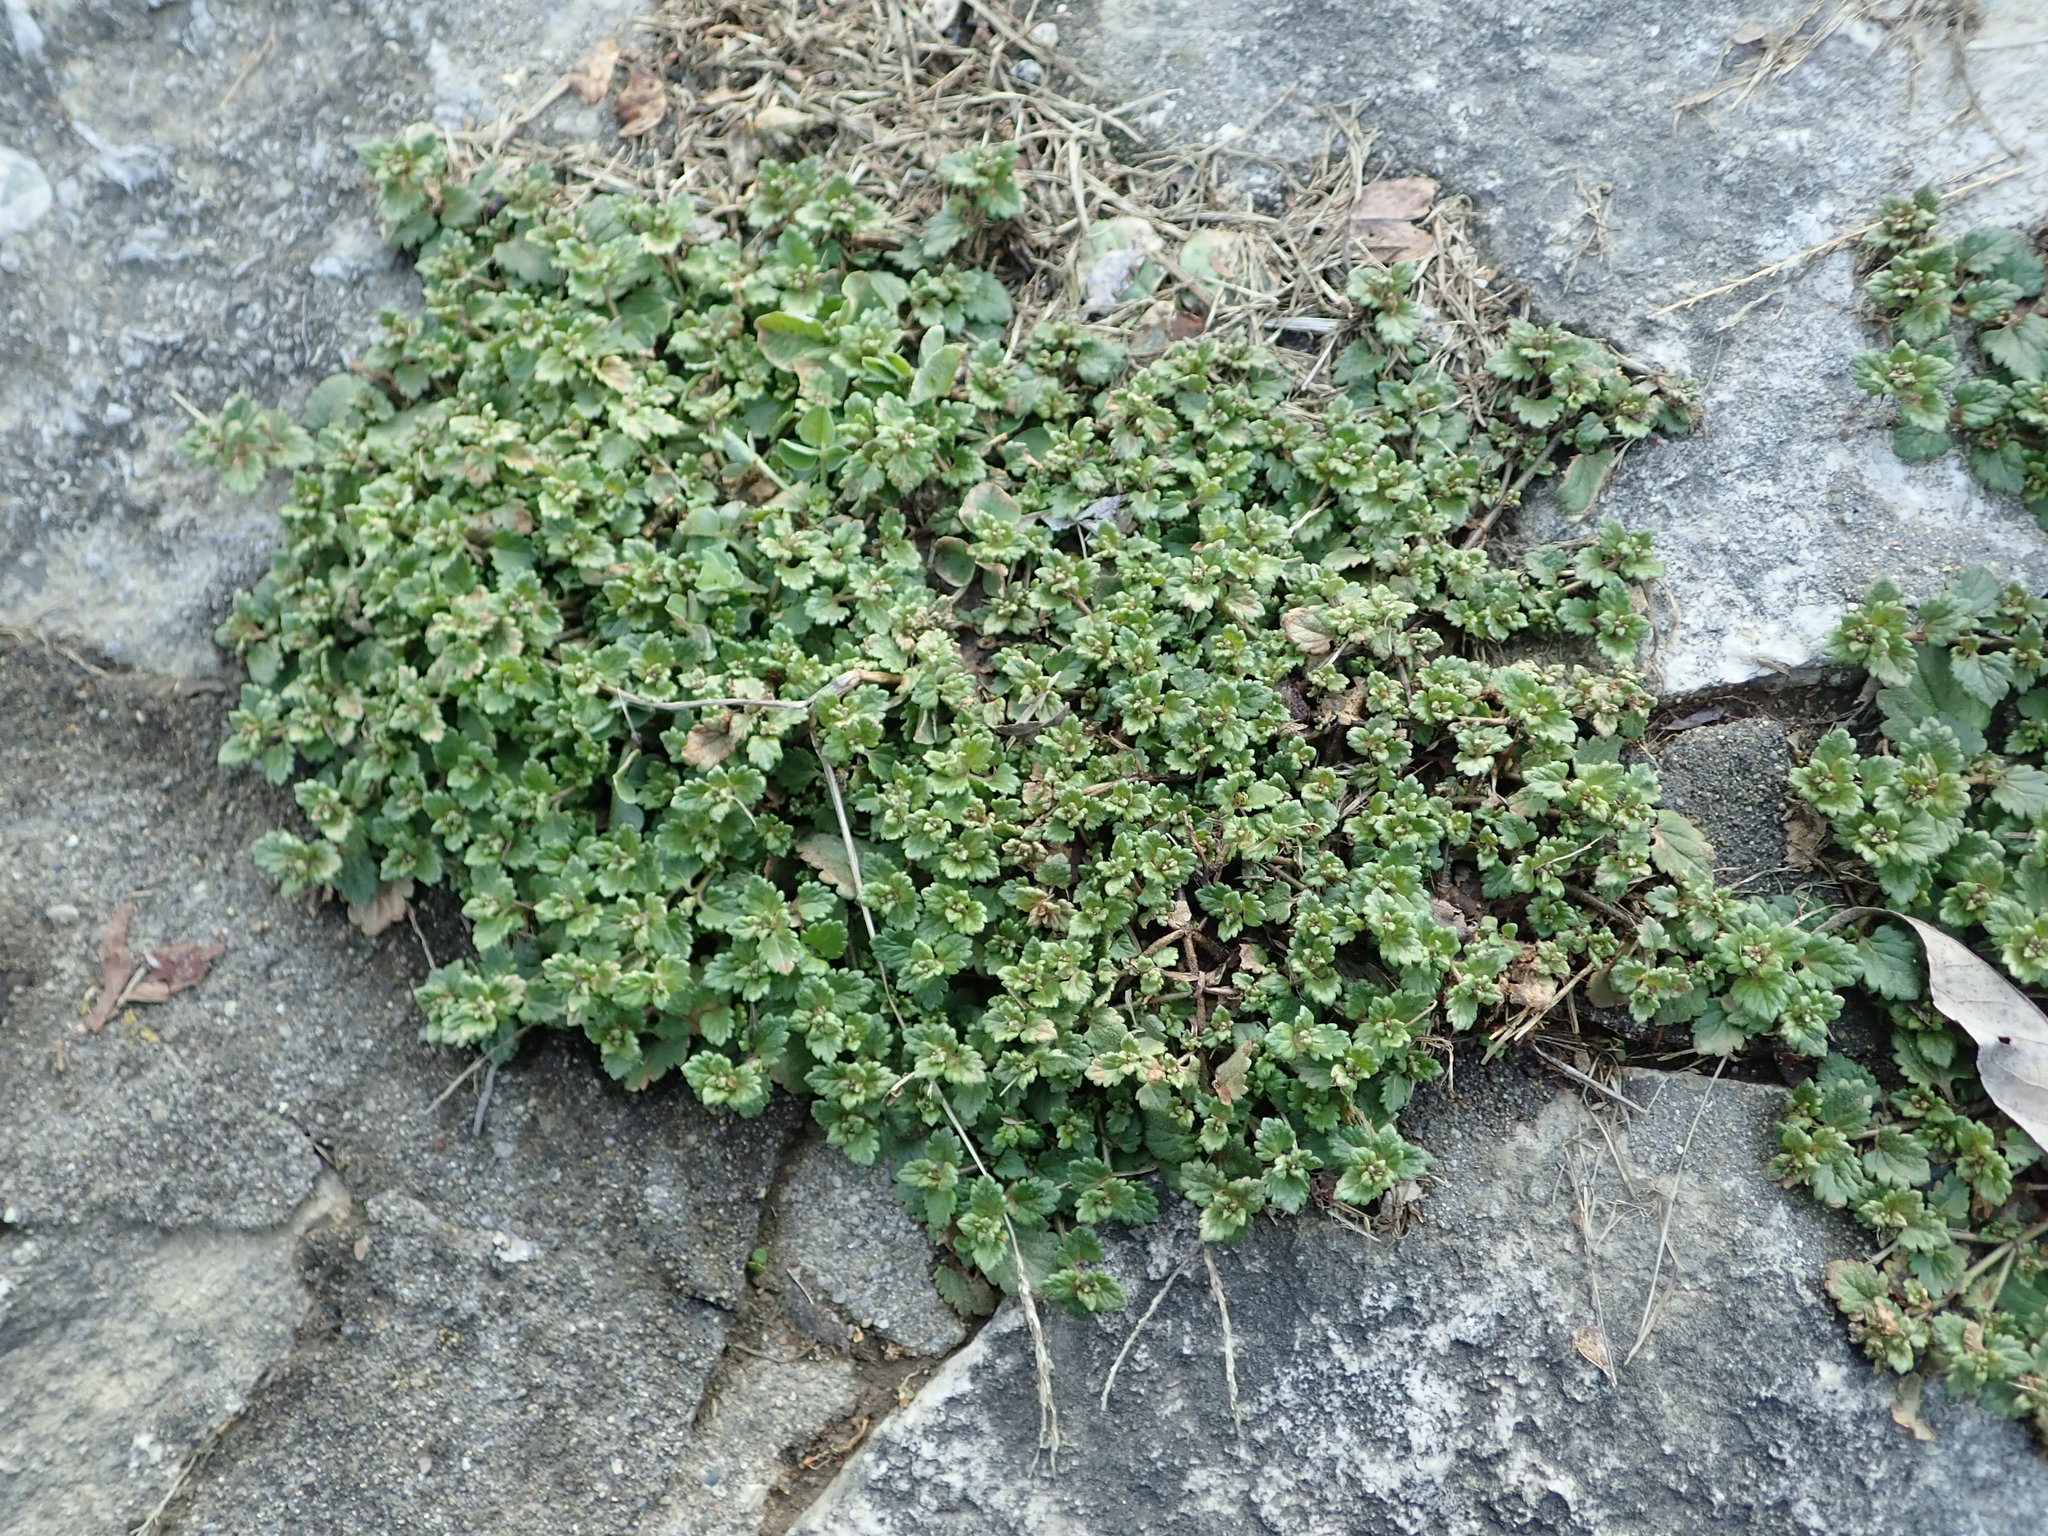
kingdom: Plantae
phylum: Tracheophyta
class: Magnoliopsida
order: Lamiales
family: Plantaginaceae
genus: Veronica
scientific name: Veronica persica
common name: Common field-speedwell
